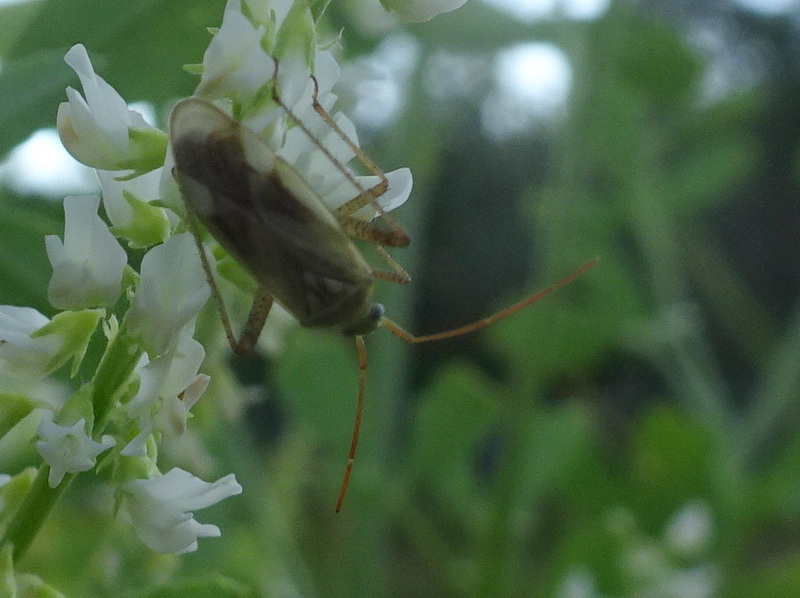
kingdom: Animalia
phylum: Arthropoda
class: Insecta
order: Hemiptera
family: Miridae
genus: Adelphocoris
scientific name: Adelphocoris lineolatus
